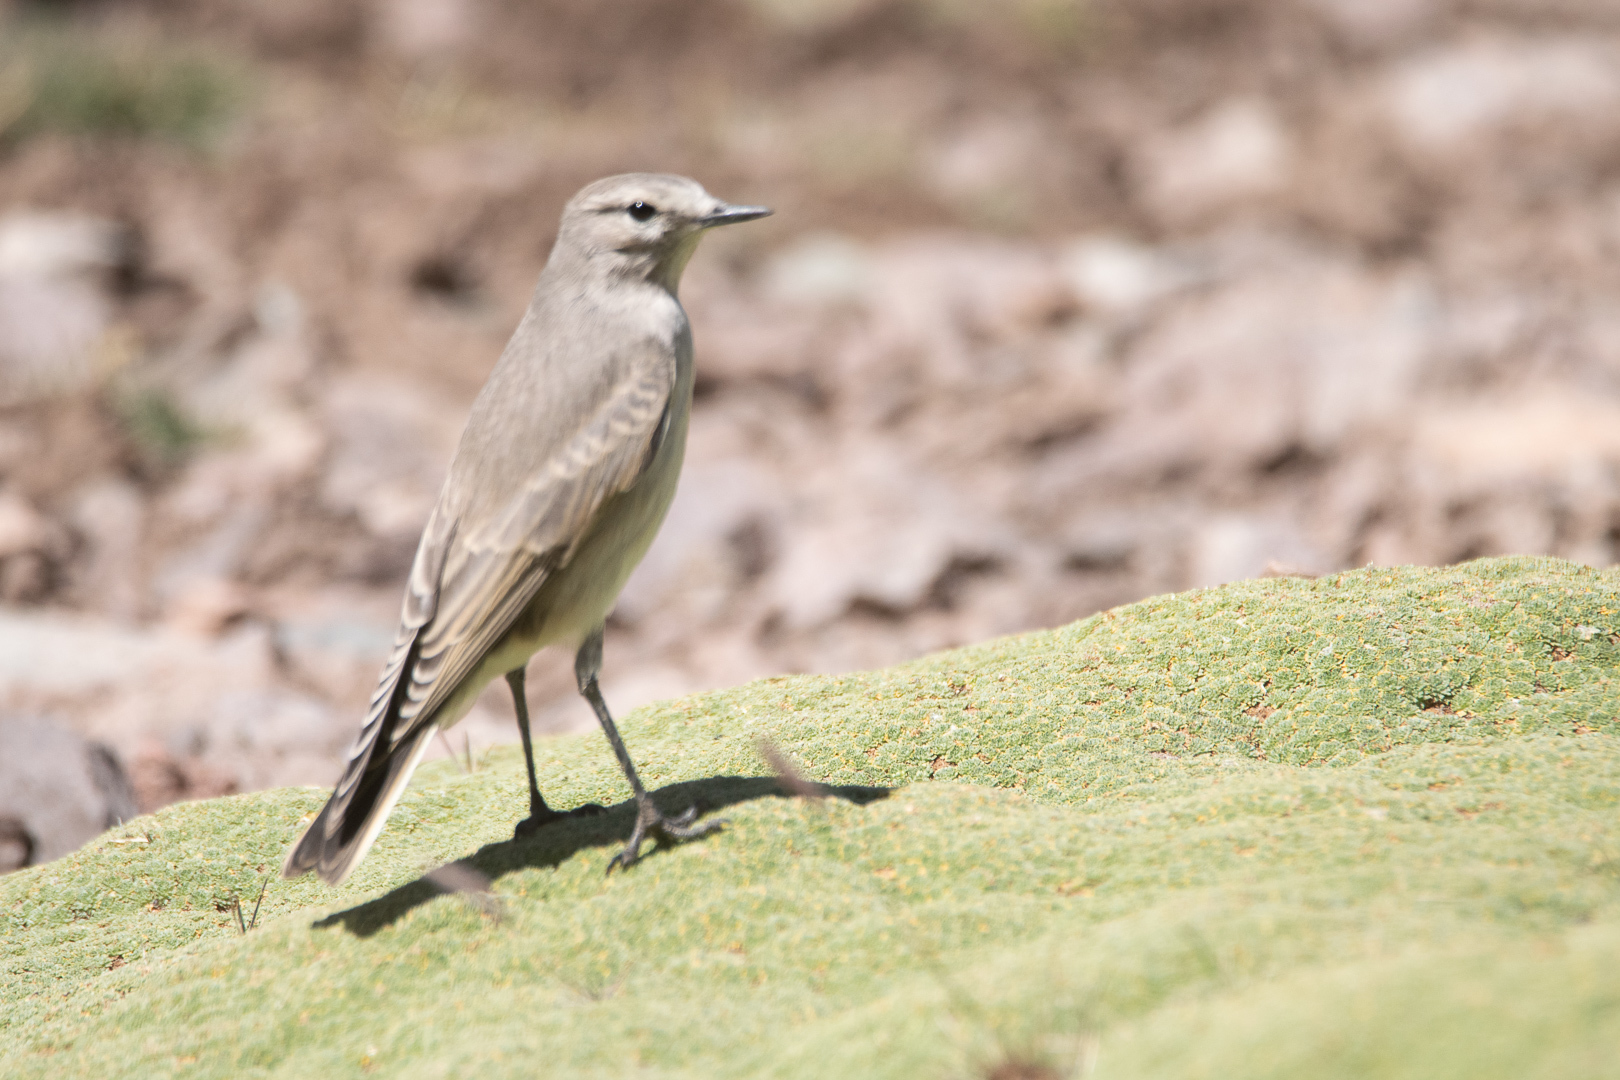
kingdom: Animalia
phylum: Chordata
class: Aves
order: Passeriformes
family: Tyrannidae
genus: Muscisaxicola
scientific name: Muscisaxicola flavinucha
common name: Ochre-naped ground tyrant
